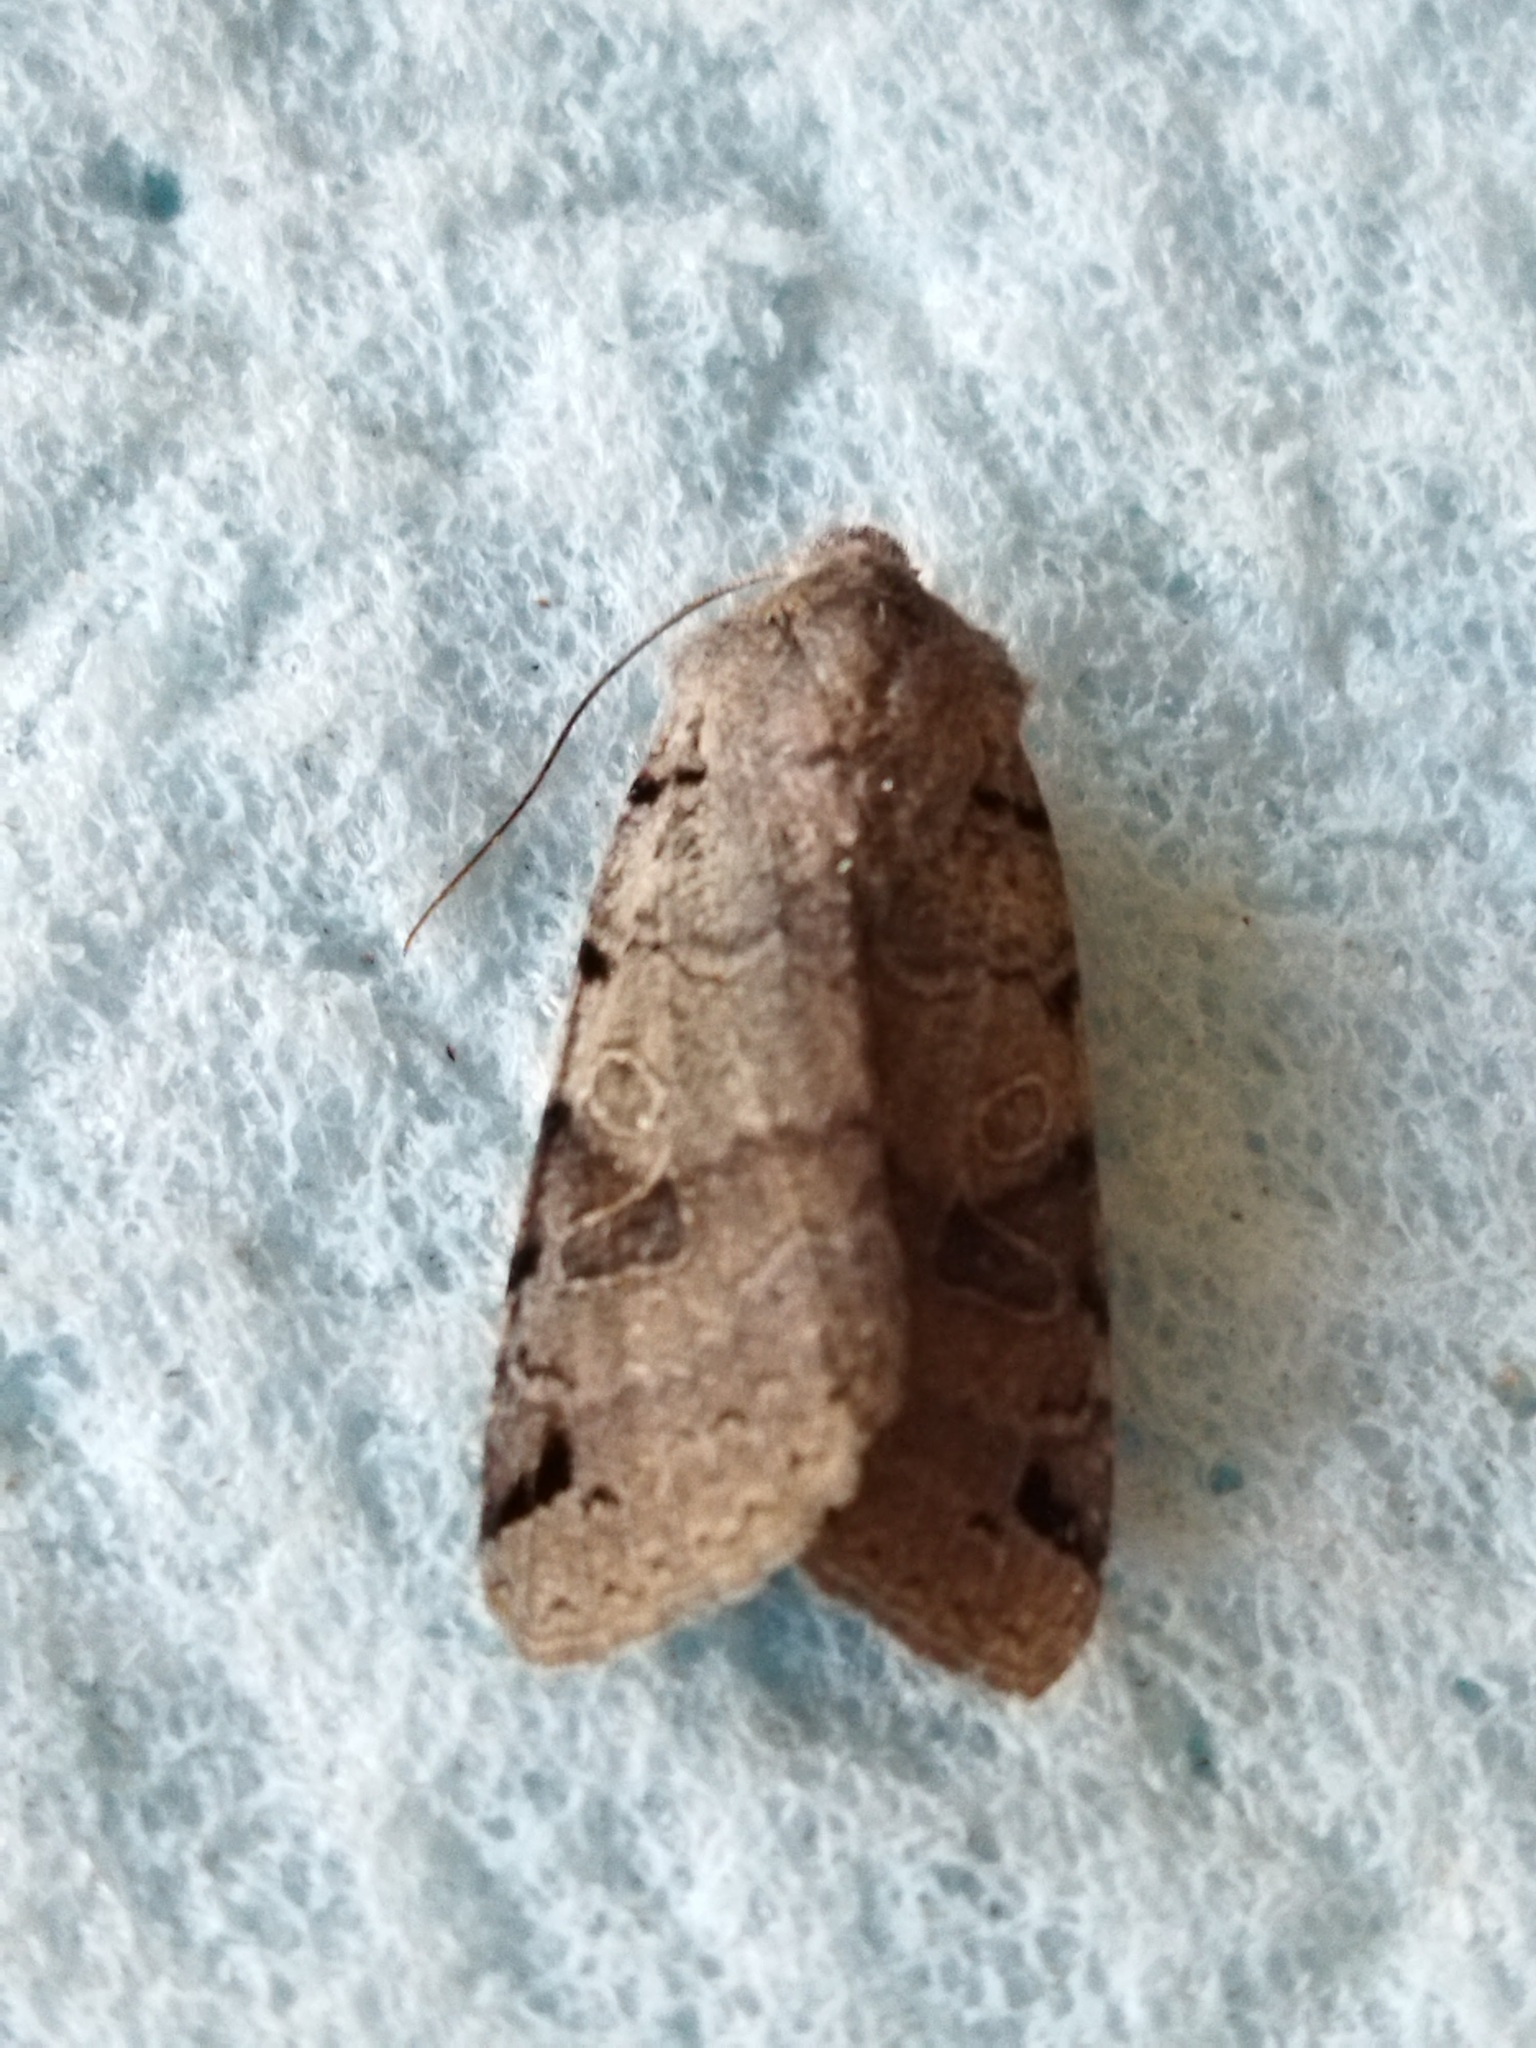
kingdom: Animalia
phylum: Arthropoda
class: Insecta
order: Lepidoptera
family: Noctuidae
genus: Agrochola
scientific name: Agrochola litura
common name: Brown-spot pinion
